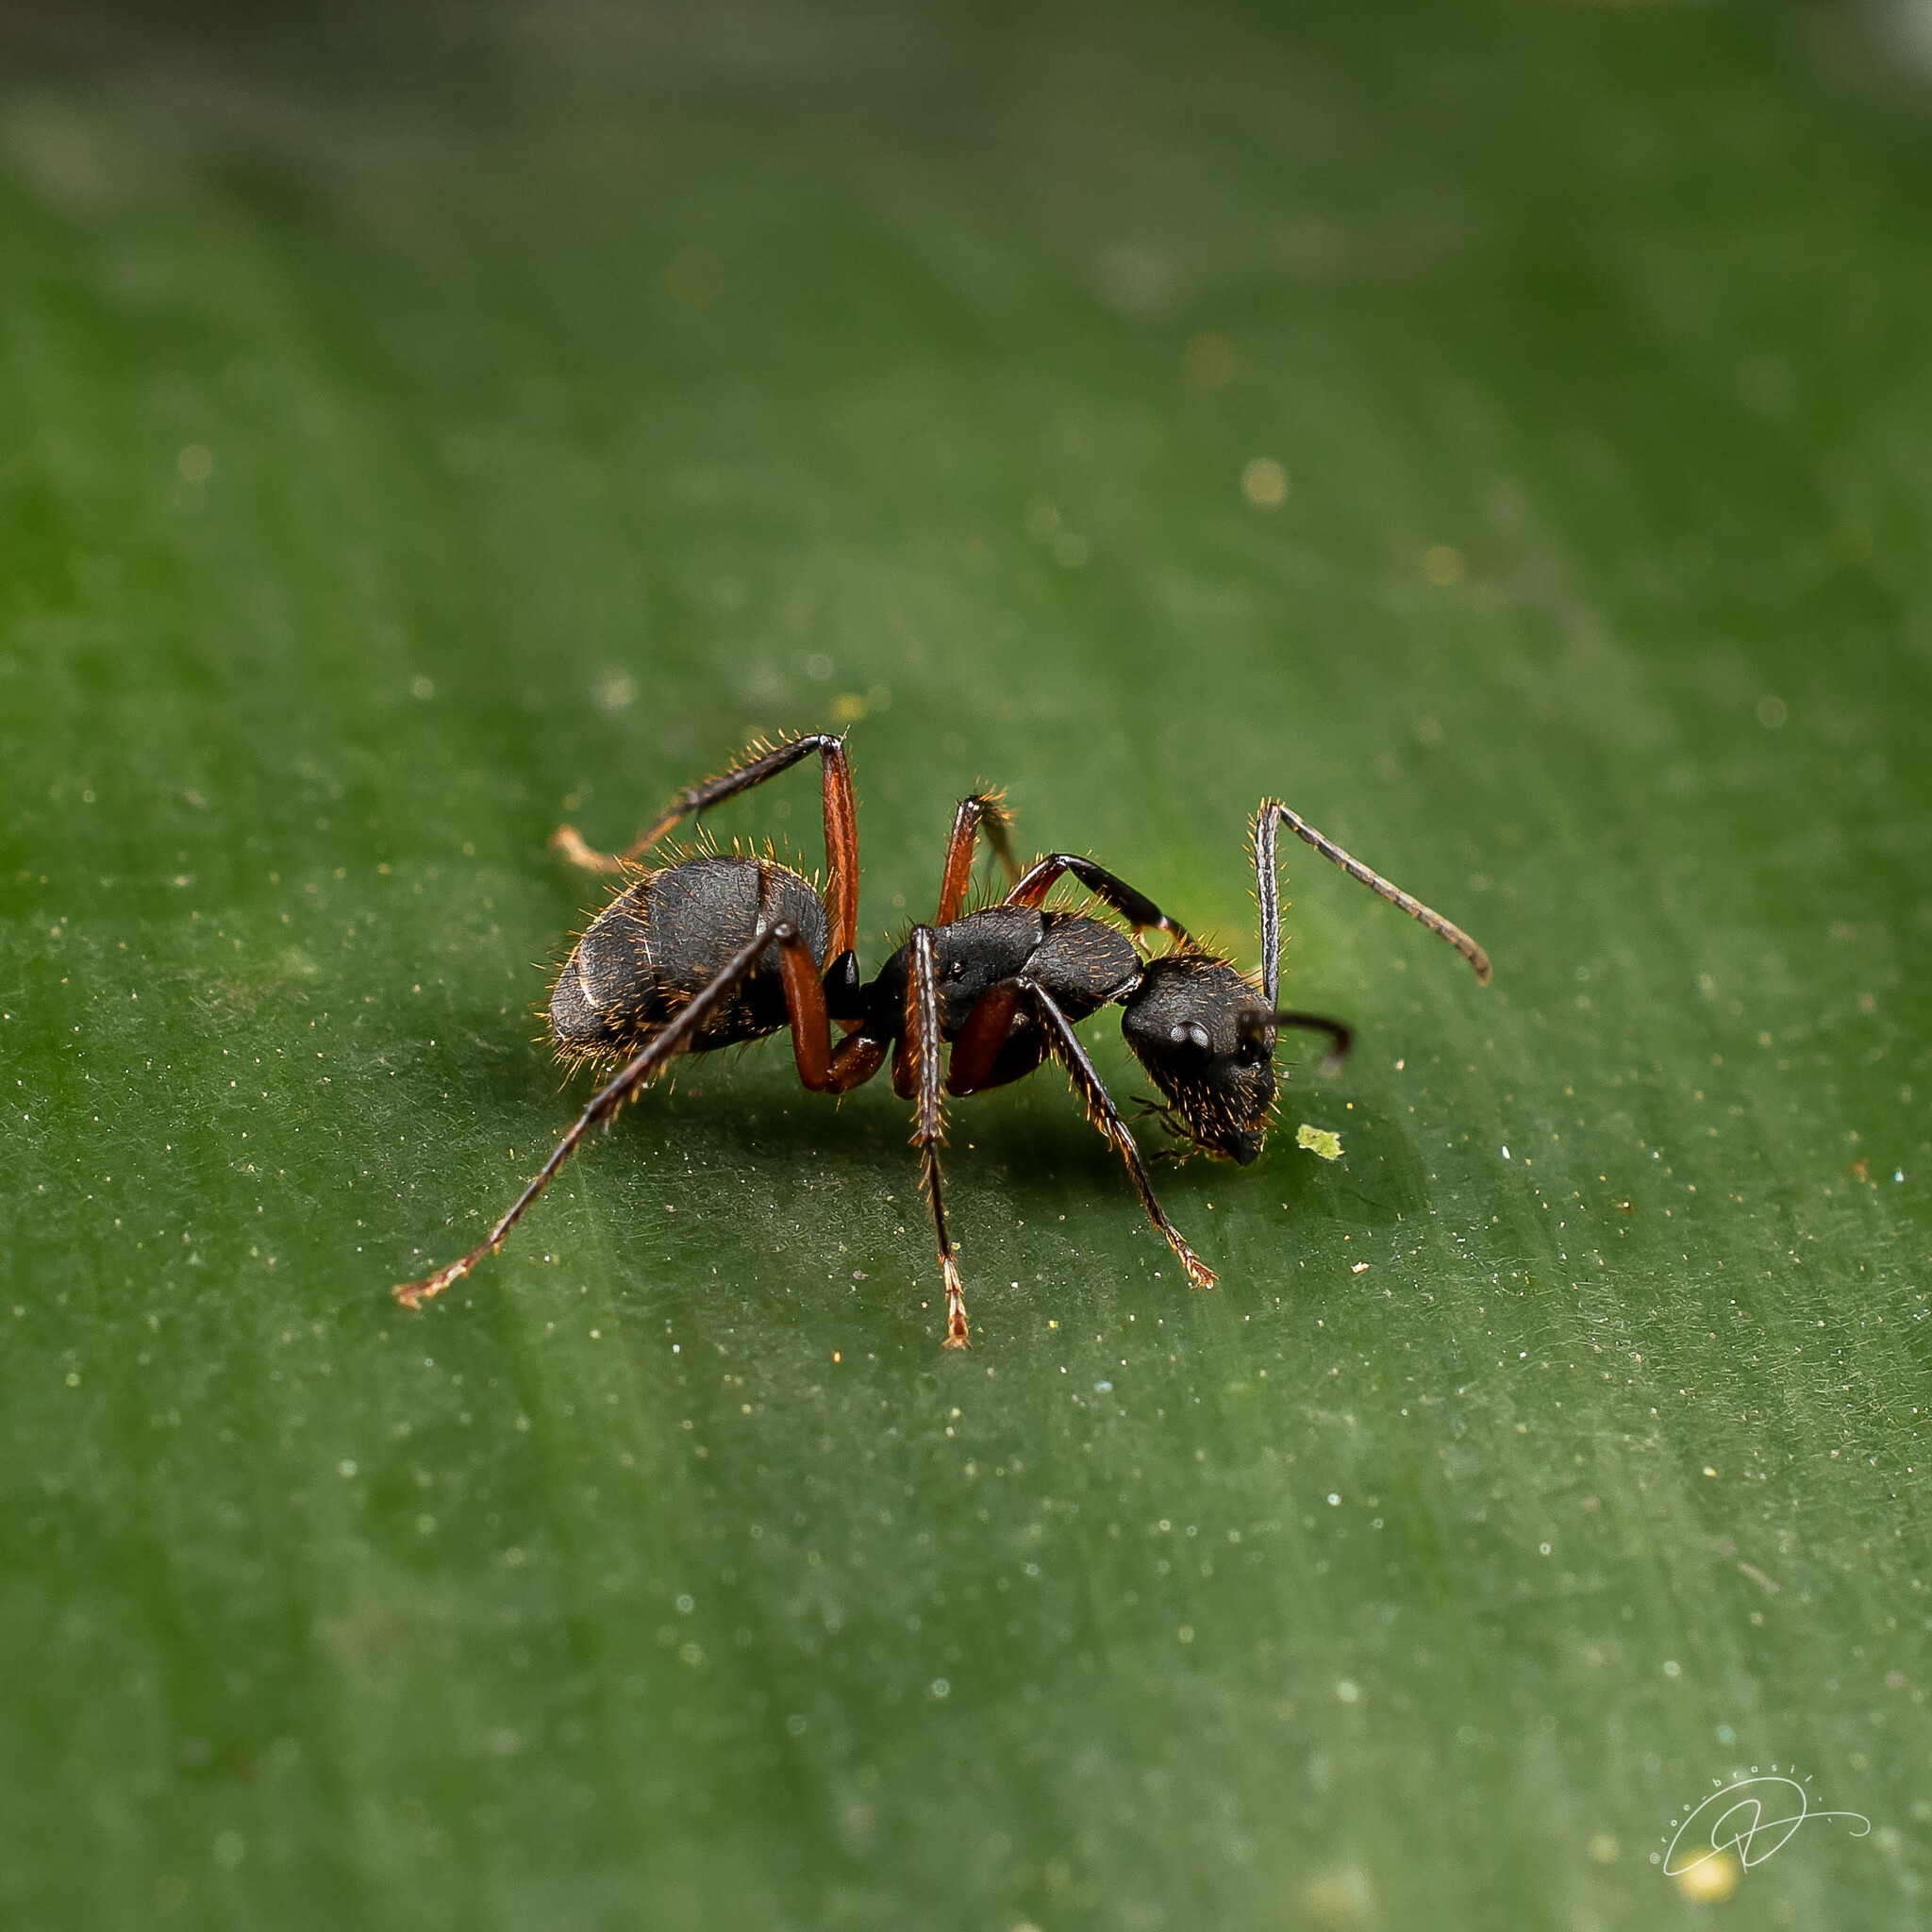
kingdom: Animalia
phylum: Arthropoda
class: Insecta
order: Hymenoptera
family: Formicidae
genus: Camponotus
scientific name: Camponotus rufipes
